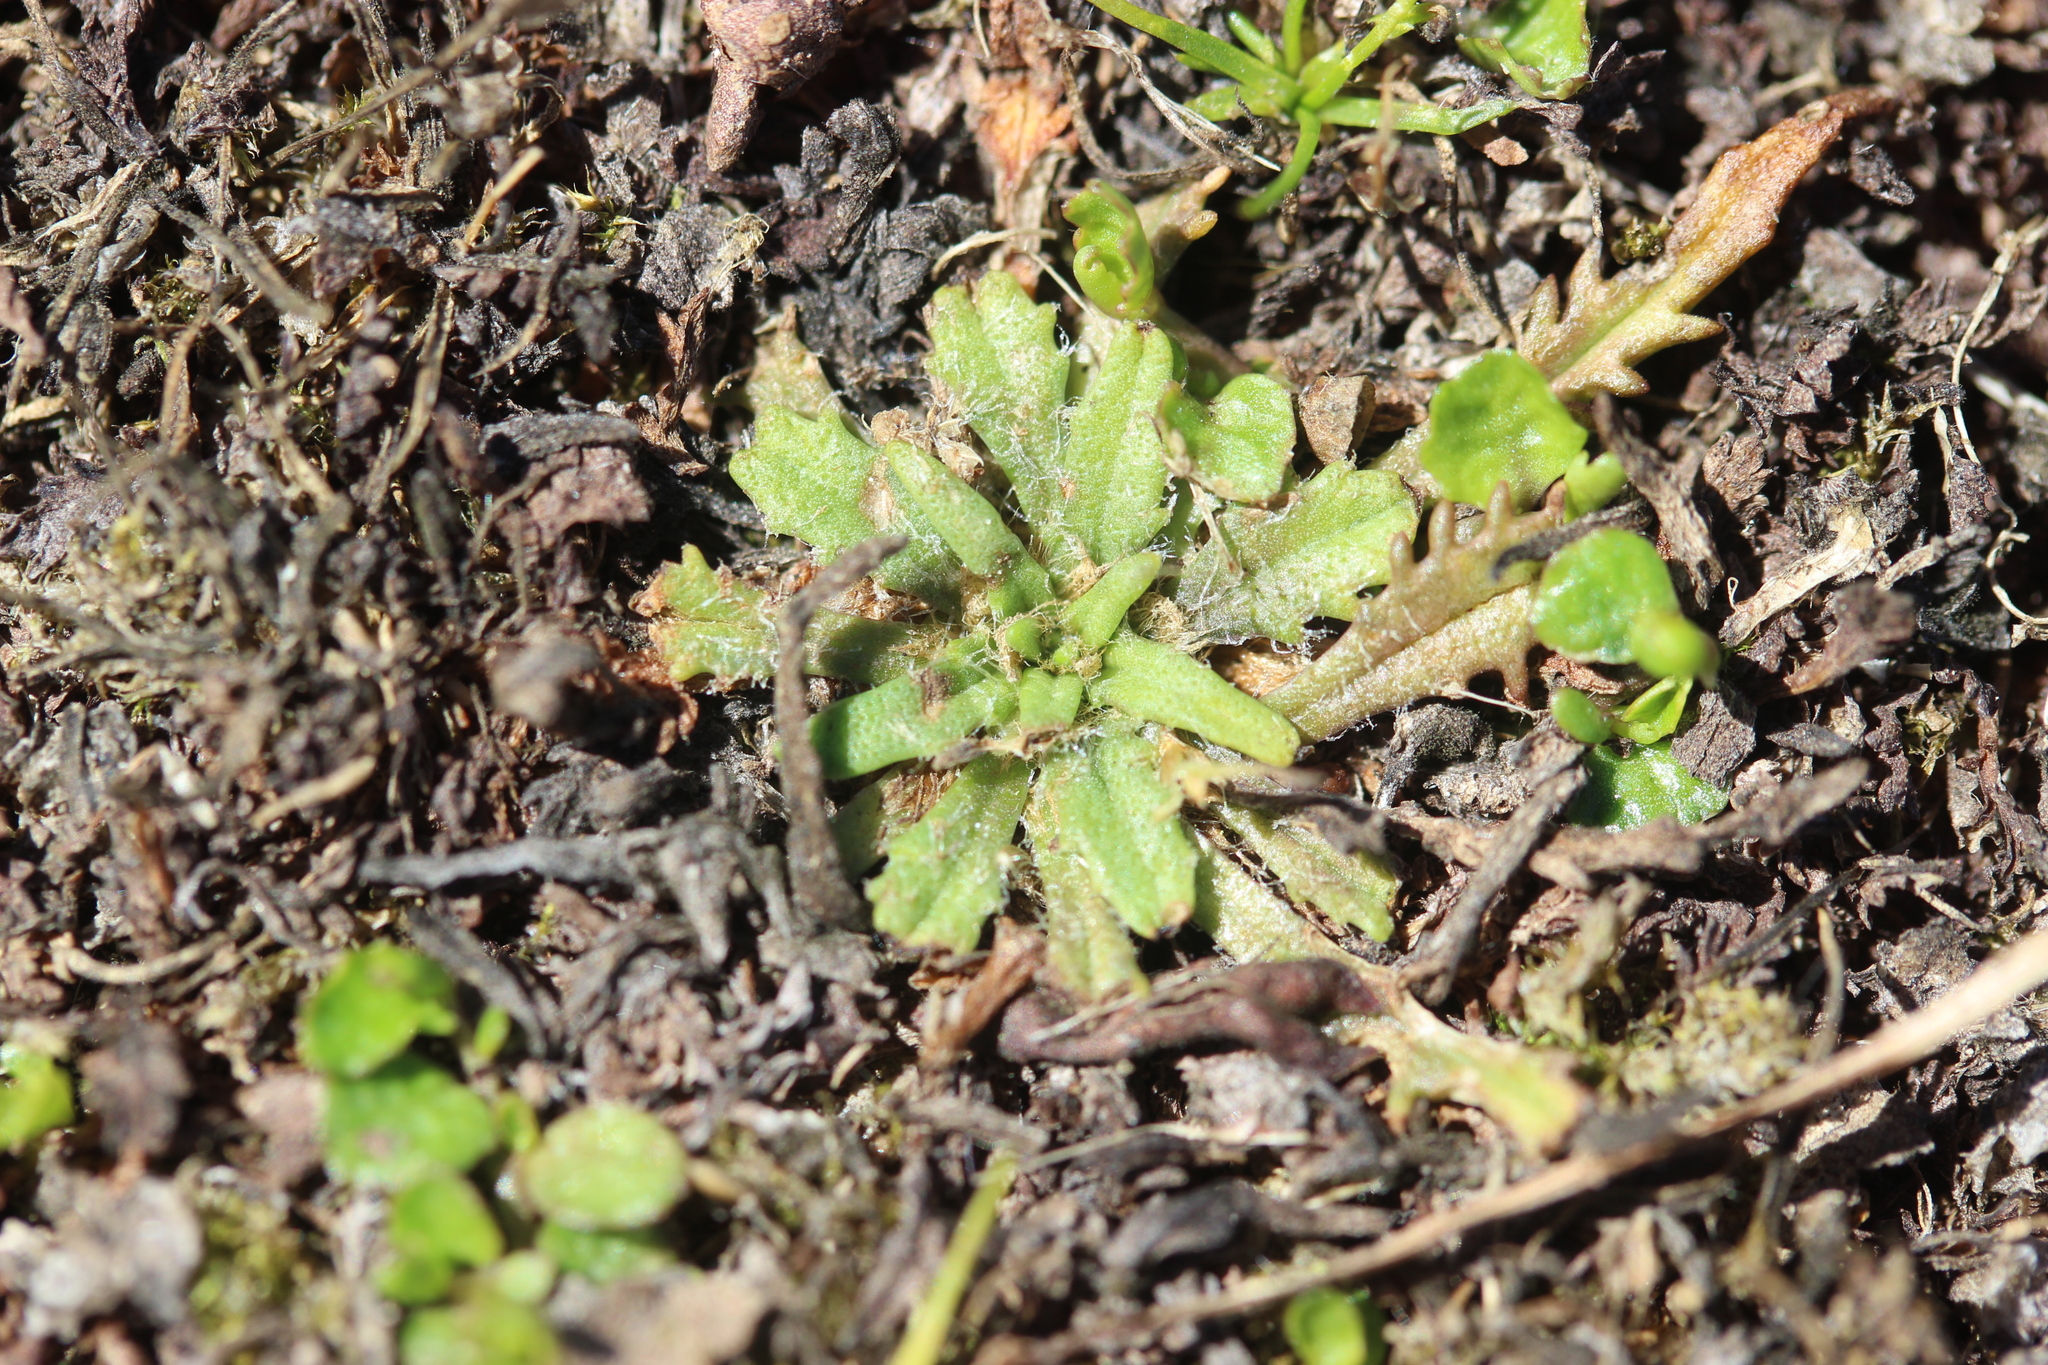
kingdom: Plantae
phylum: Tracheophyta
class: Magnoliopsida
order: Lamiales
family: Plantaginaceae
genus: Plantago
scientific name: Plantago triandra
